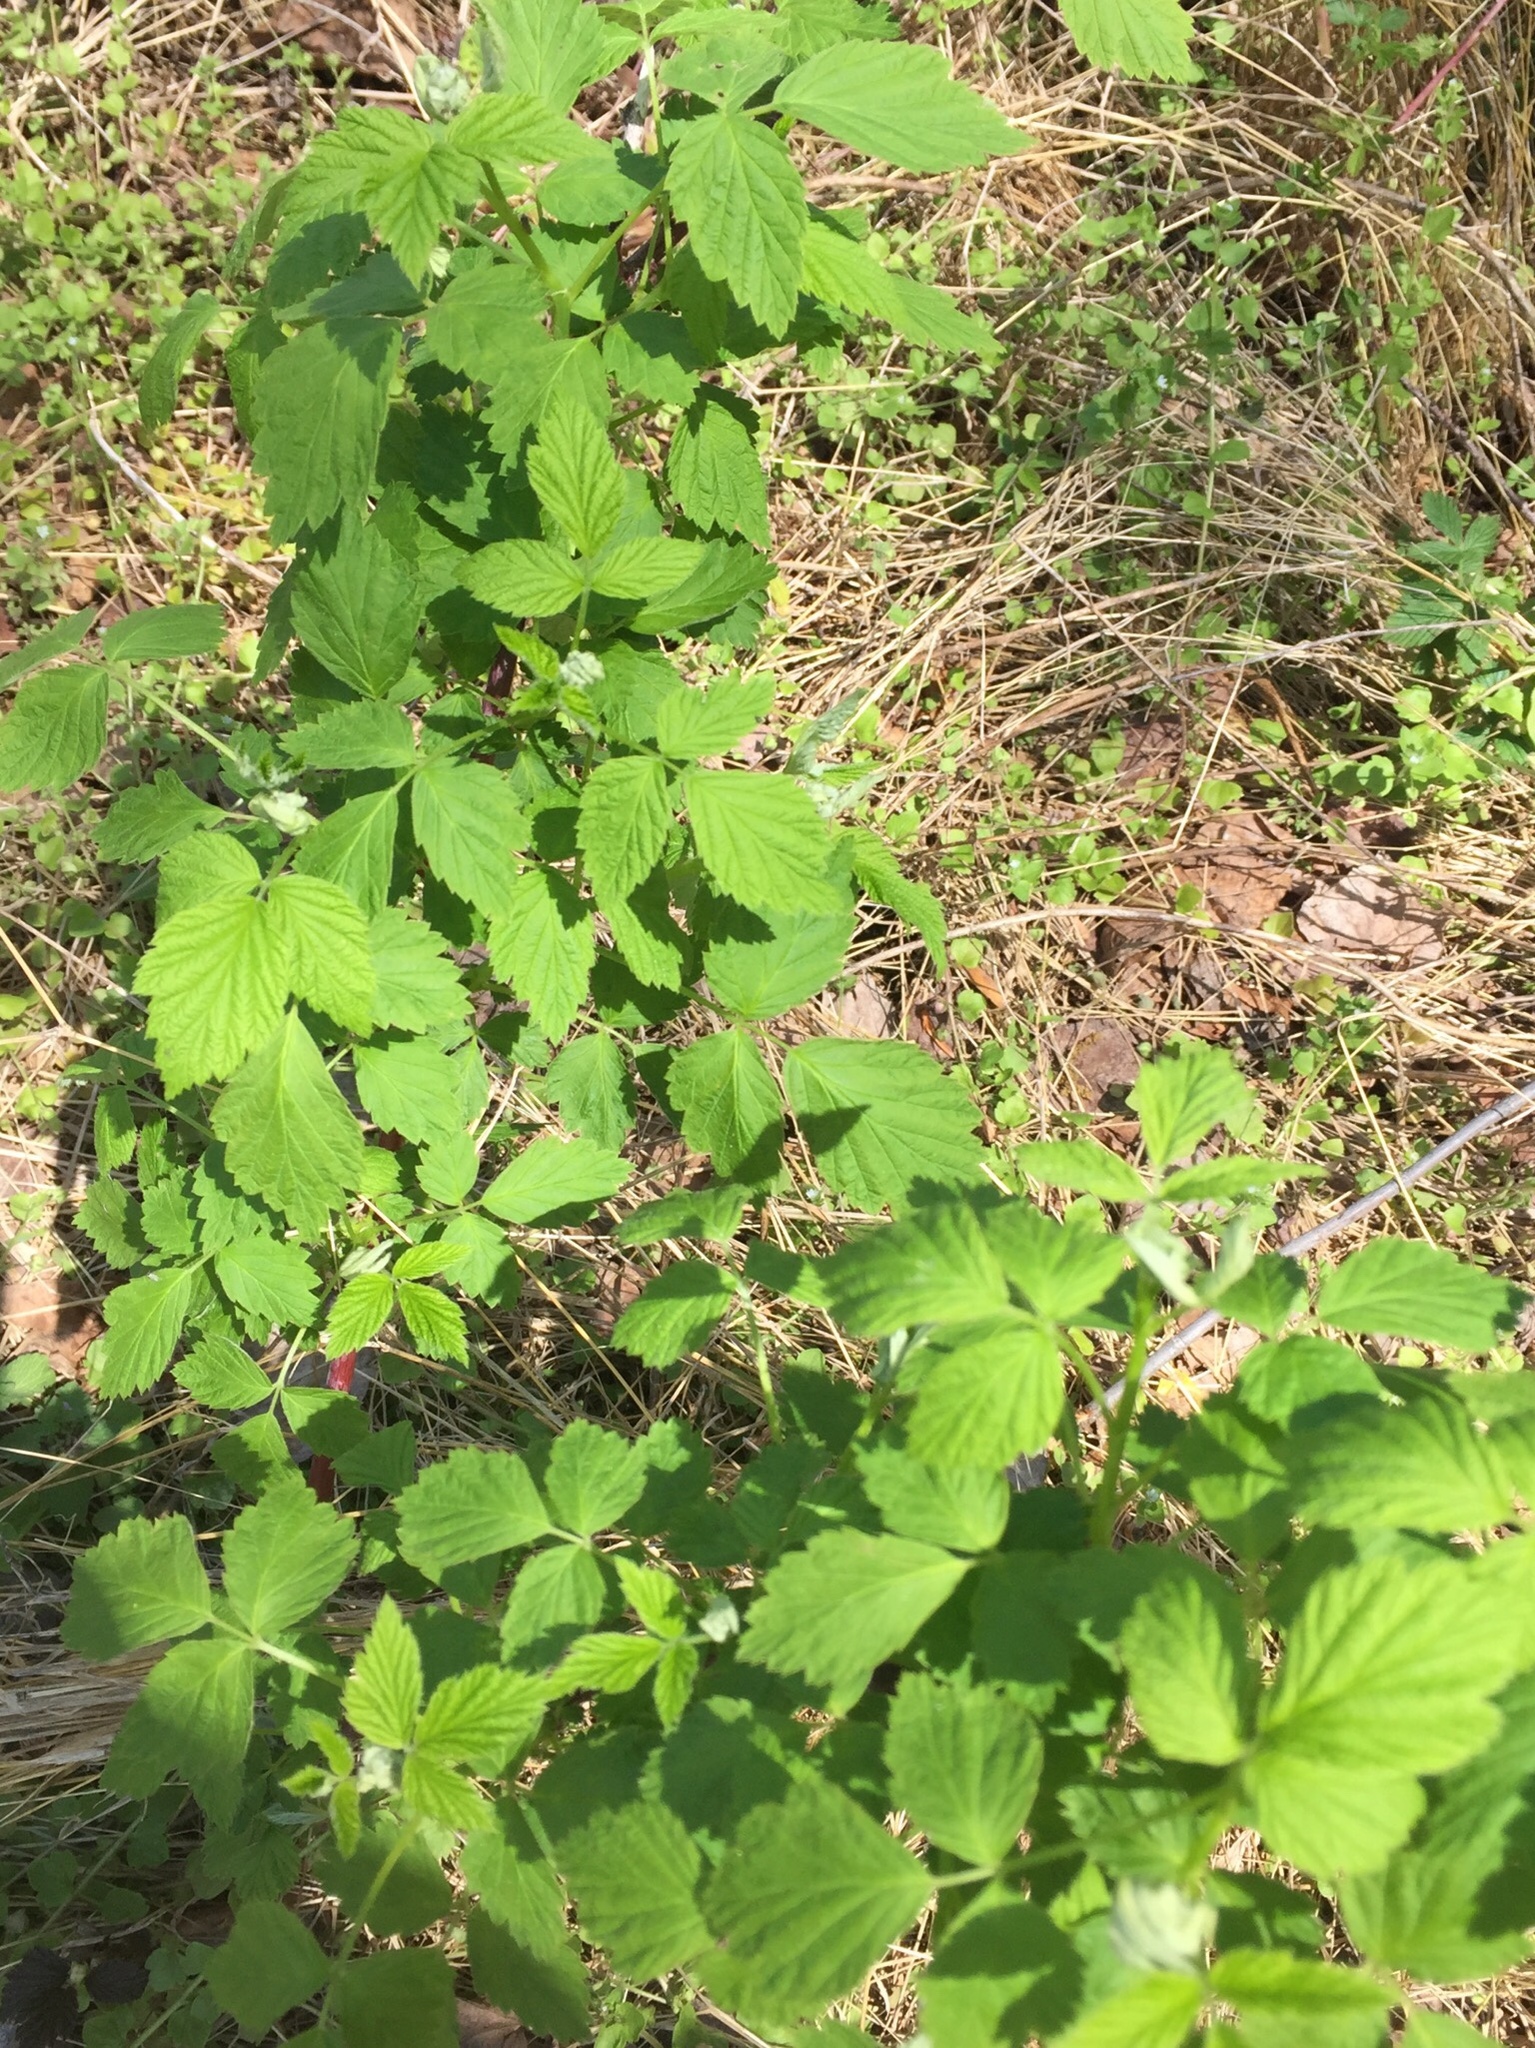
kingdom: Plantae
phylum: Tracheophyta
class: Magnoliopsida
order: Rosales
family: Rosaceae
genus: Rubus
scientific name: Rubus occidentalis
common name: Black raspberry
